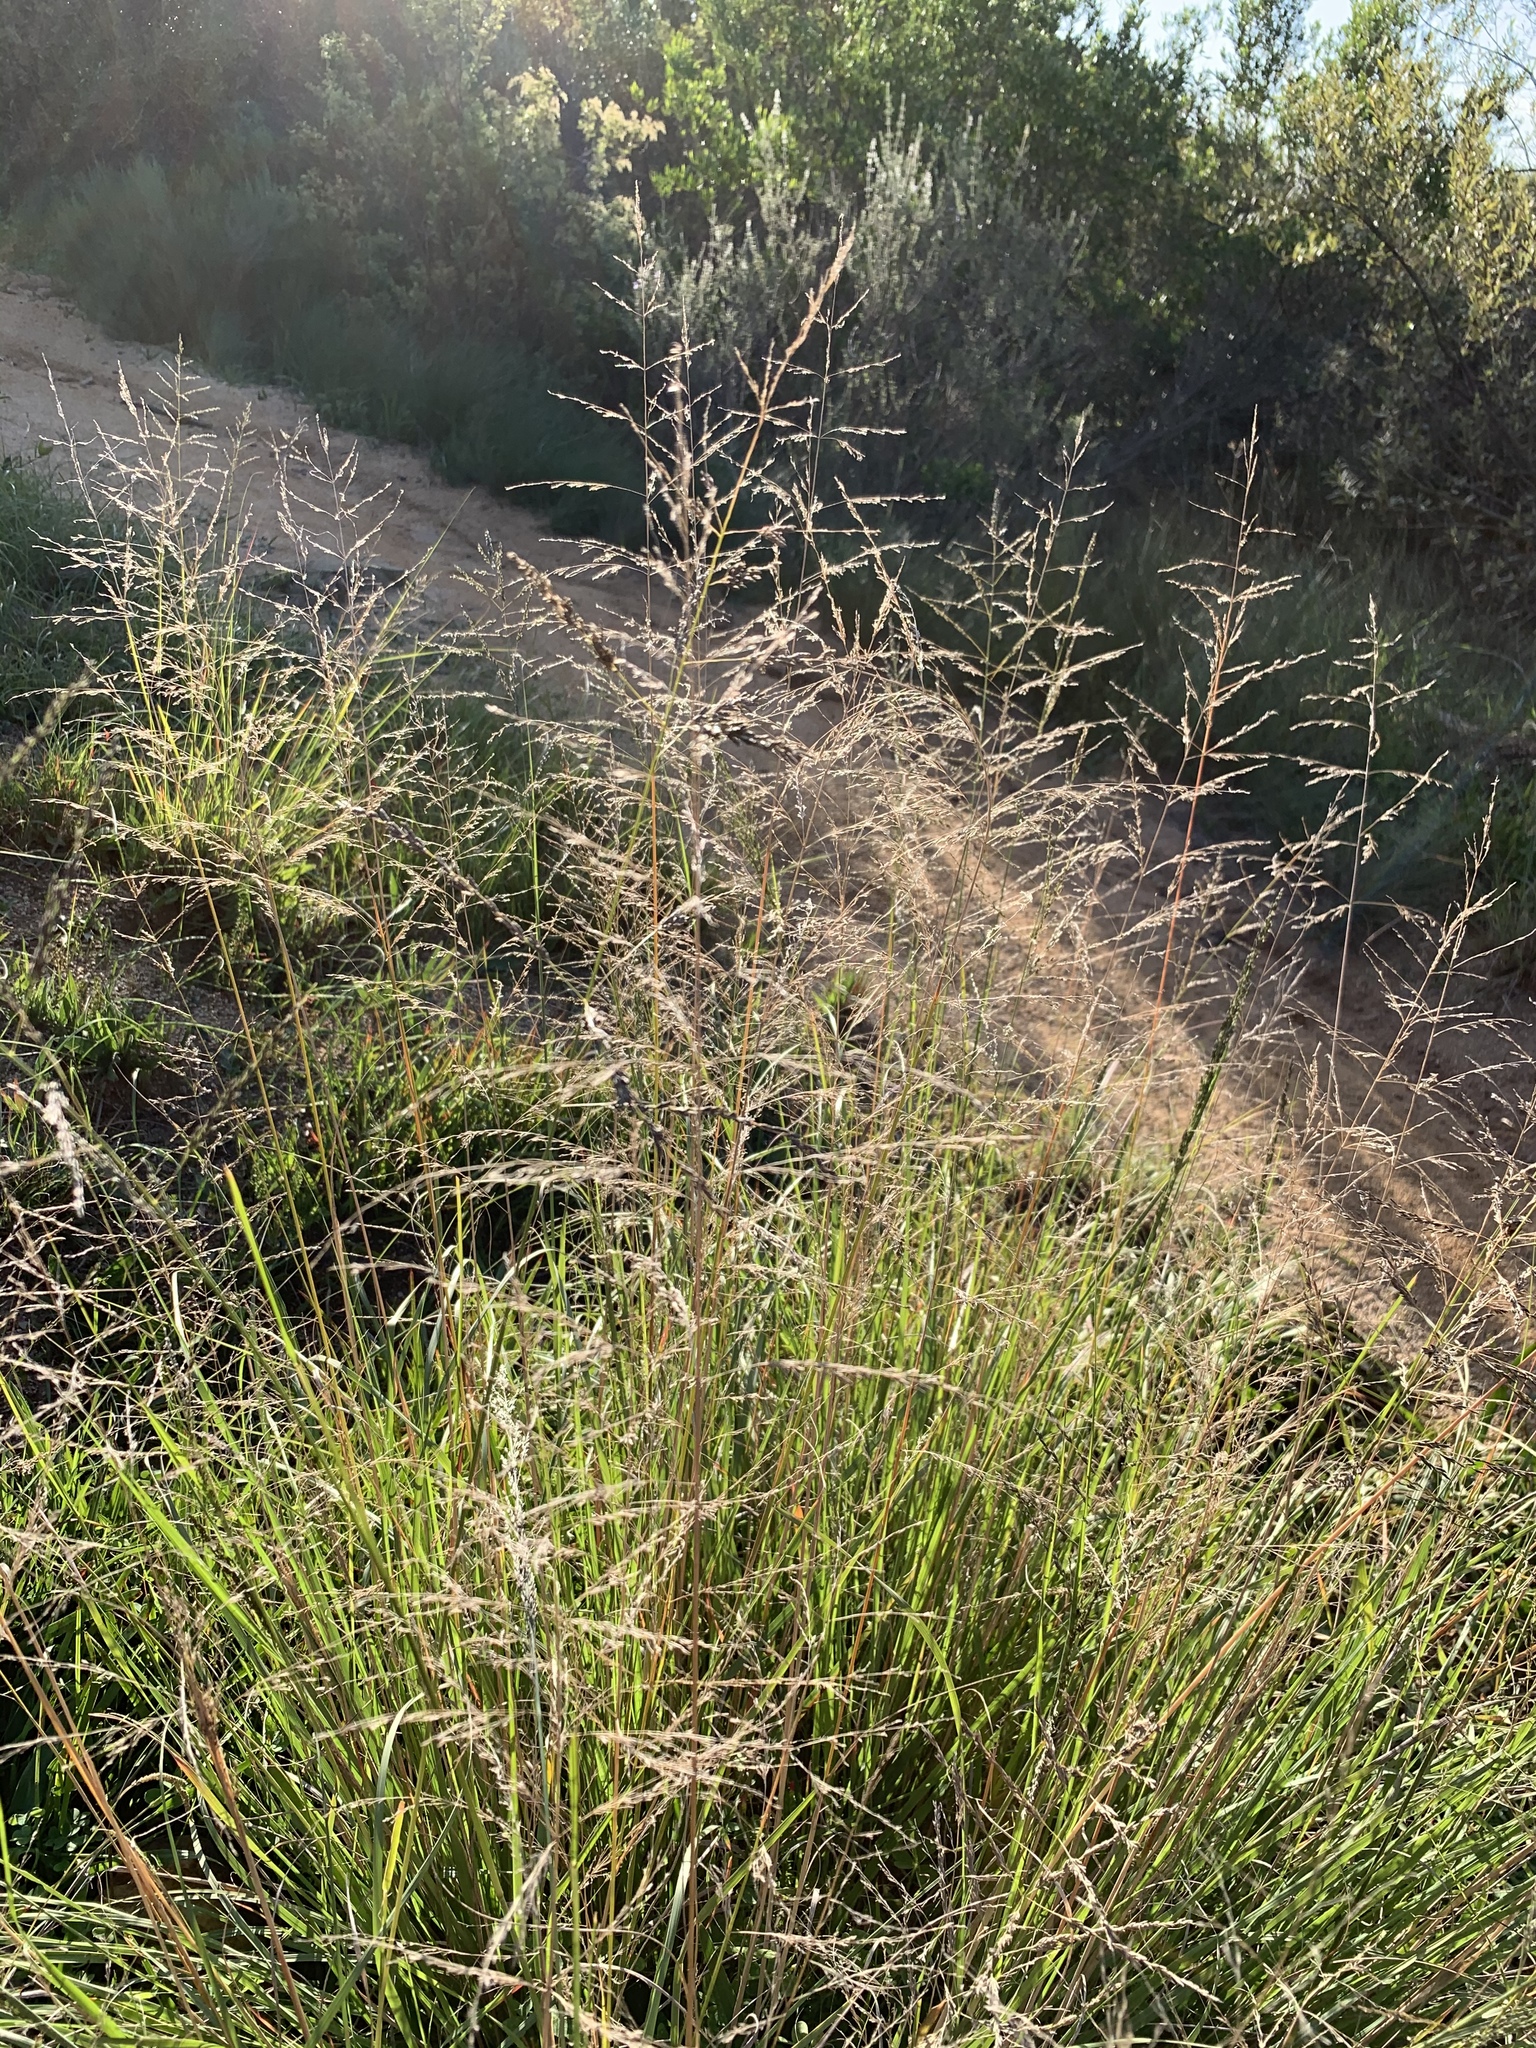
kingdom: Plantae
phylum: Tracheophyta
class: Liliopsida
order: Poales
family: Poaceae
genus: Eragrostis
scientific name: Eragrostis curvula
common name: African love-grass
